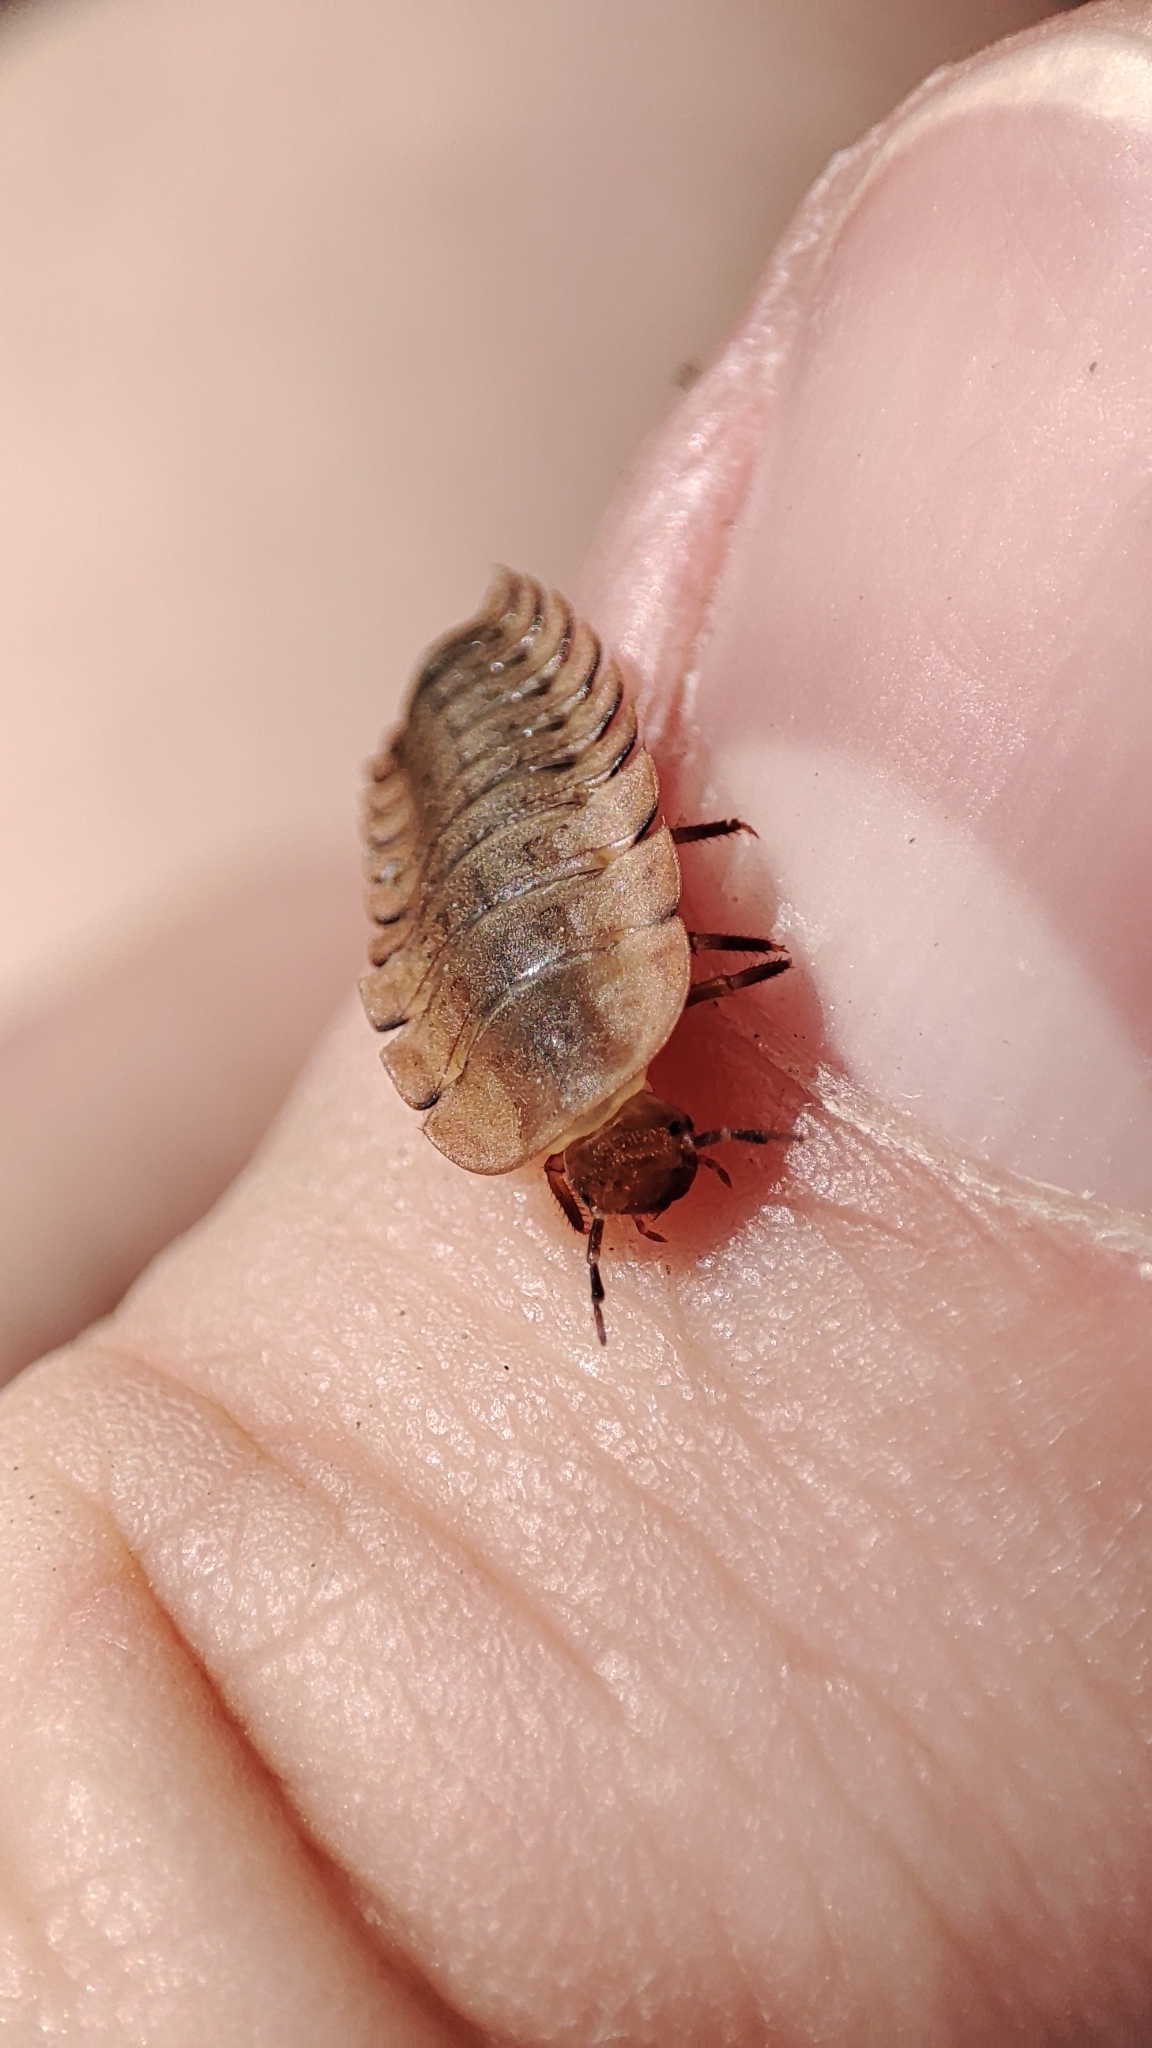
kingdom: Animalia
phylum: Arthropoda
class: Insecta
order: Coleoptera
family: Staphylinidae
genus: Silpha
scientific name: Silpha obscura
